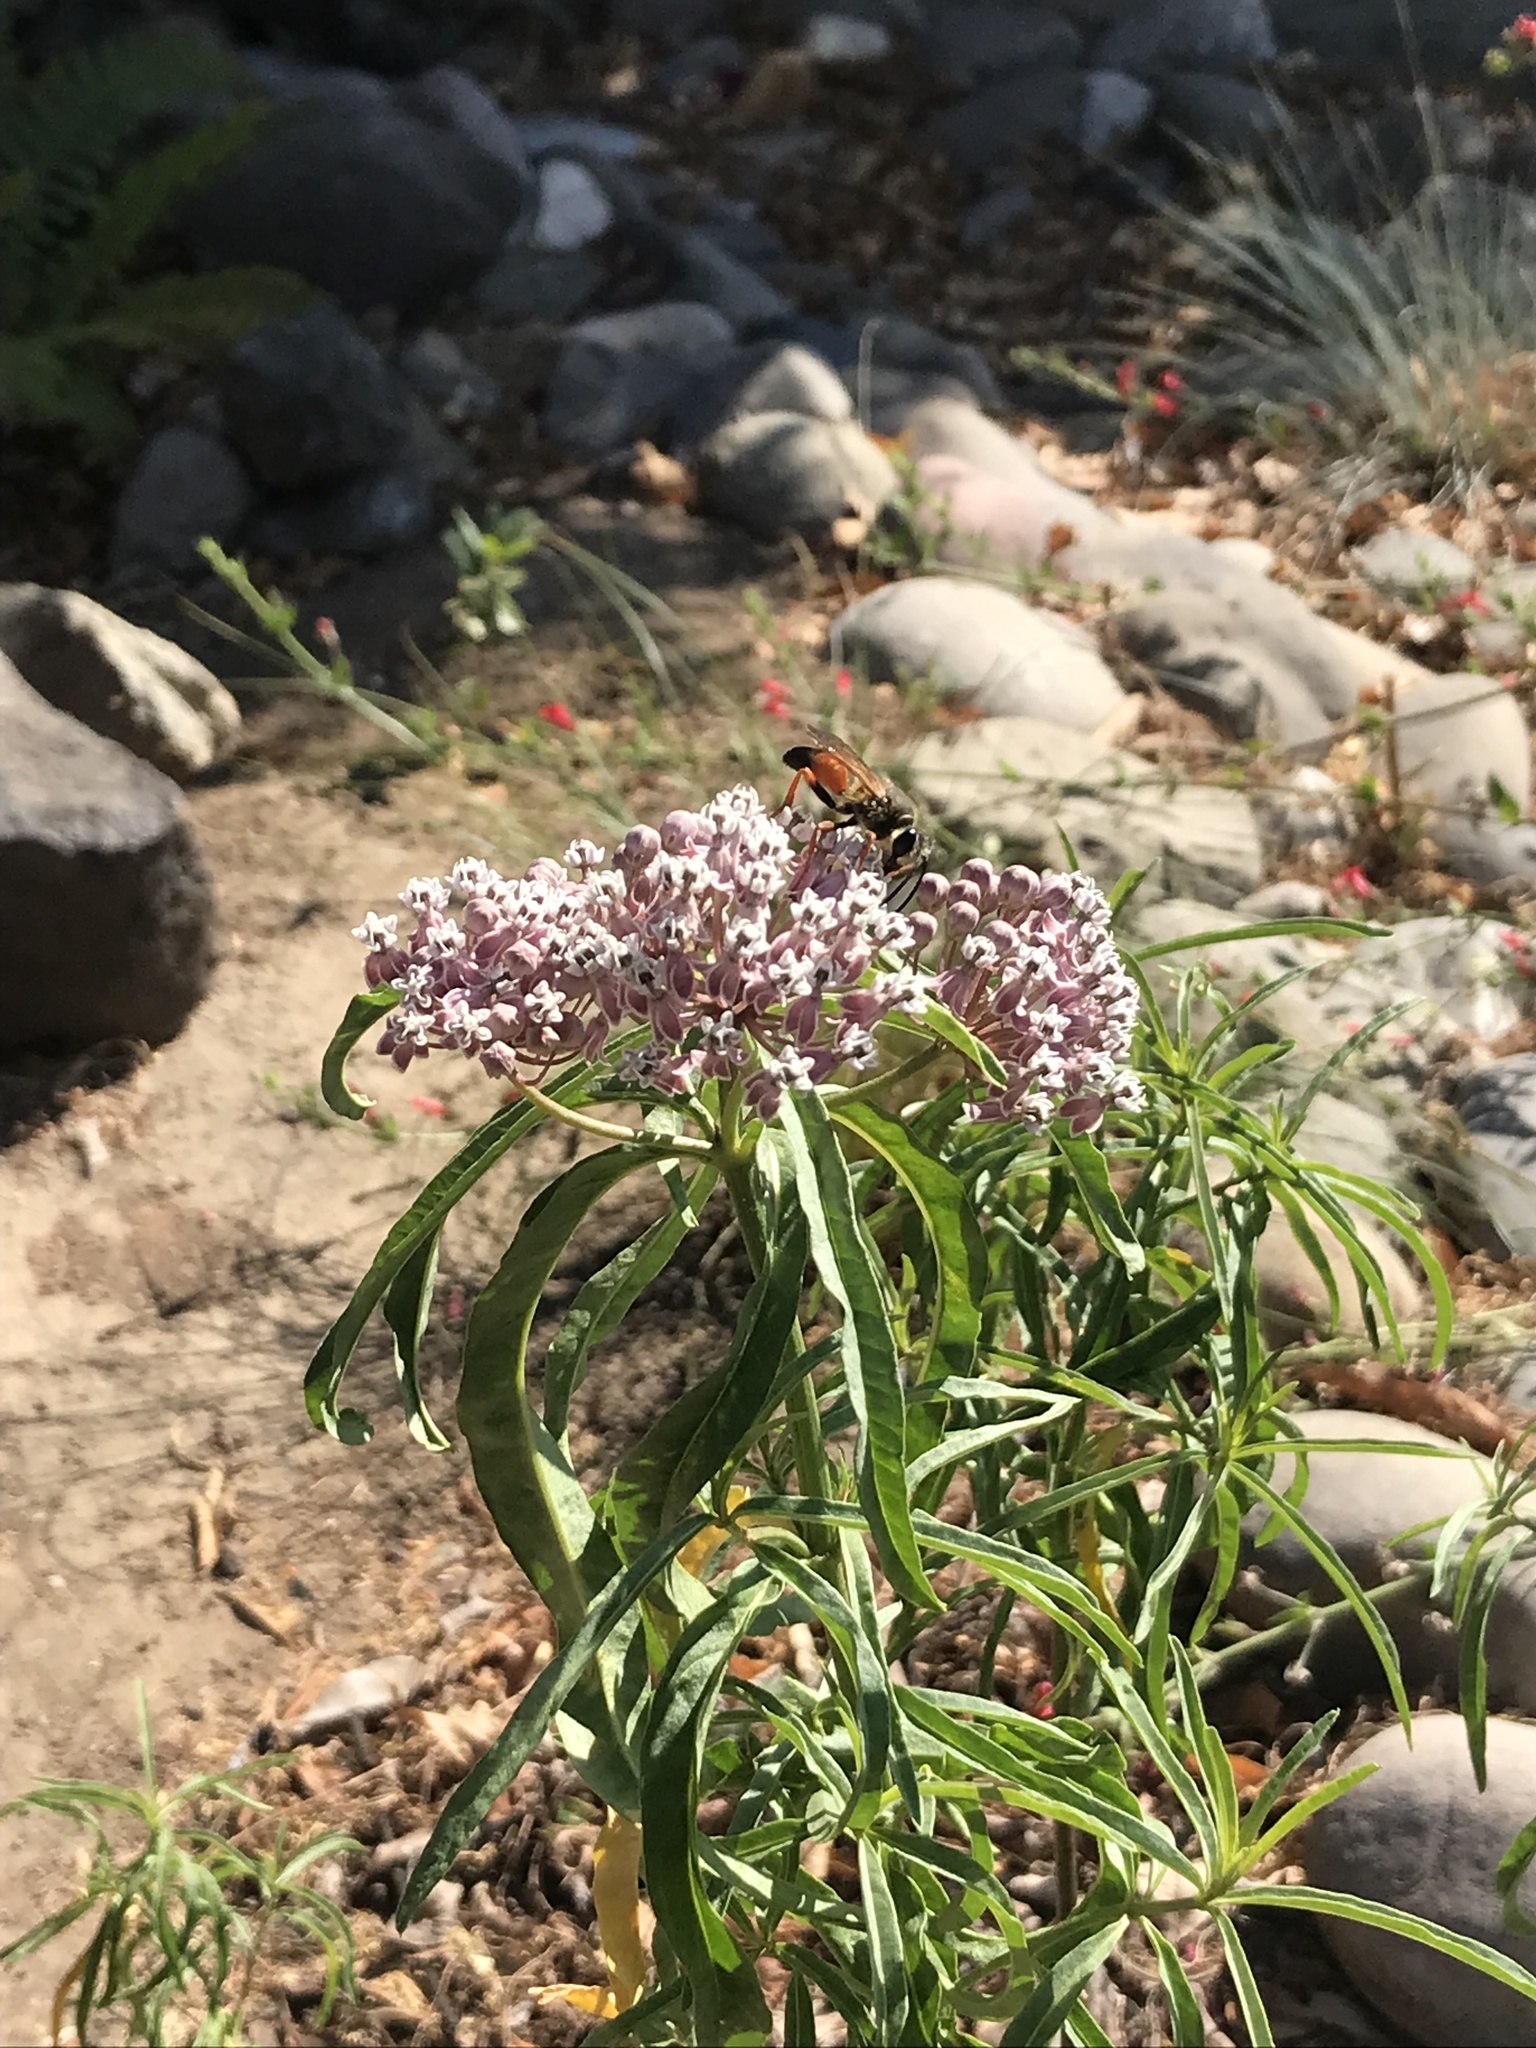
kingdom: Animalia
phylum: Arthropoda
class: Insecta
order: Hymenoptera
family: Sphecidae
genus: Sphex
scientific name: Sphex ichneumoneus
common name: Great golden digger wasp
